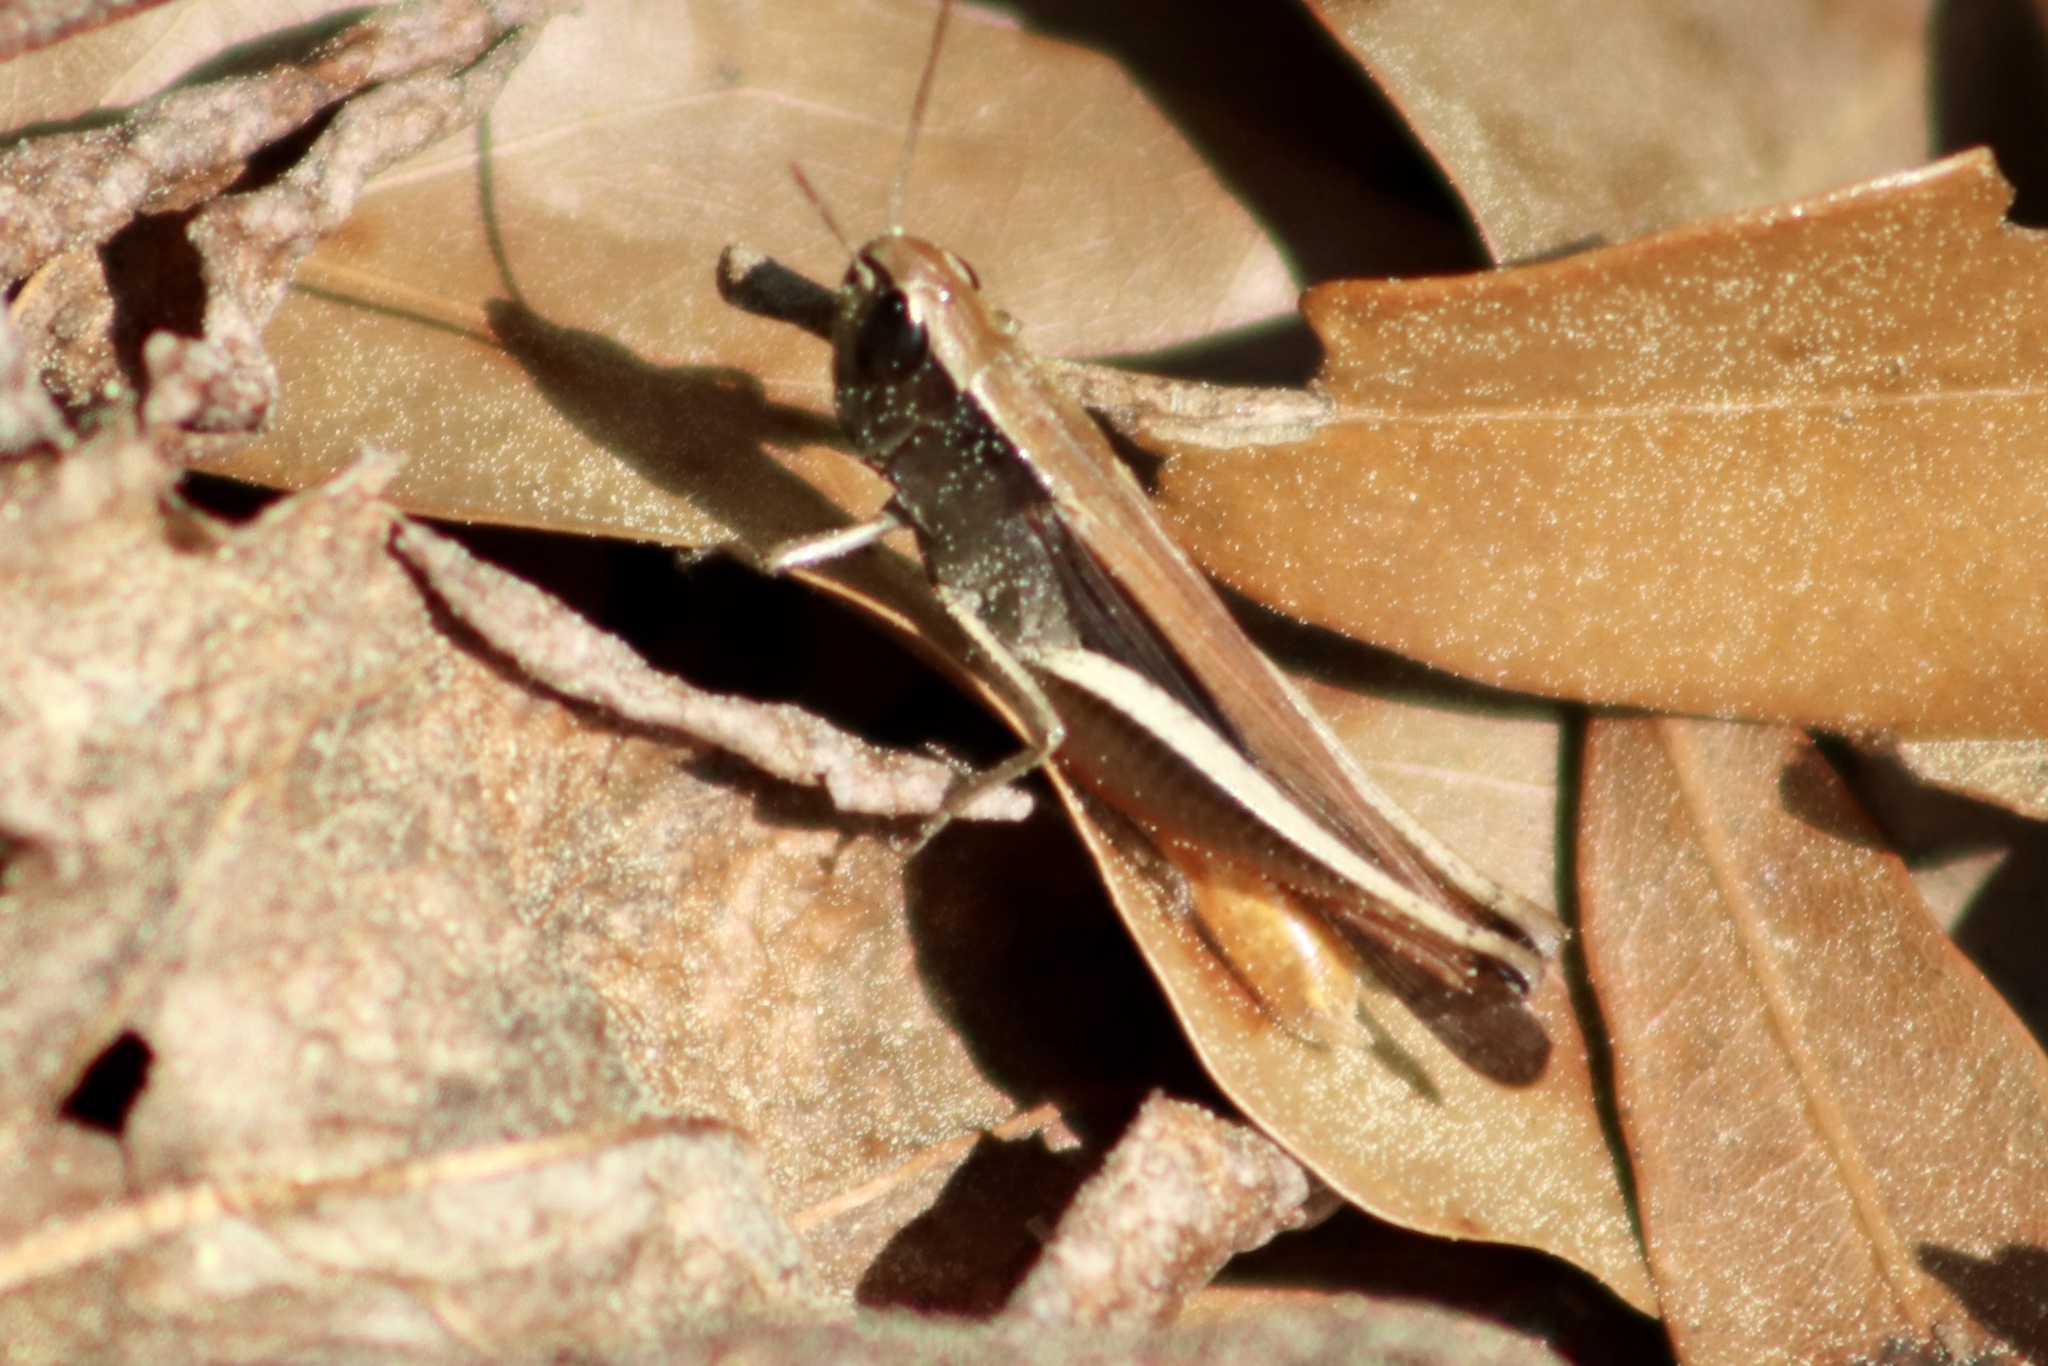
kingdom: Animalia
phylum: Arthropoda
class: Insecta
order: Orthoptera
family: Acrididae
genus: Amblytropidia
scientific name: Amblytropidia mysteca
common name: Brown winter grasshopper
